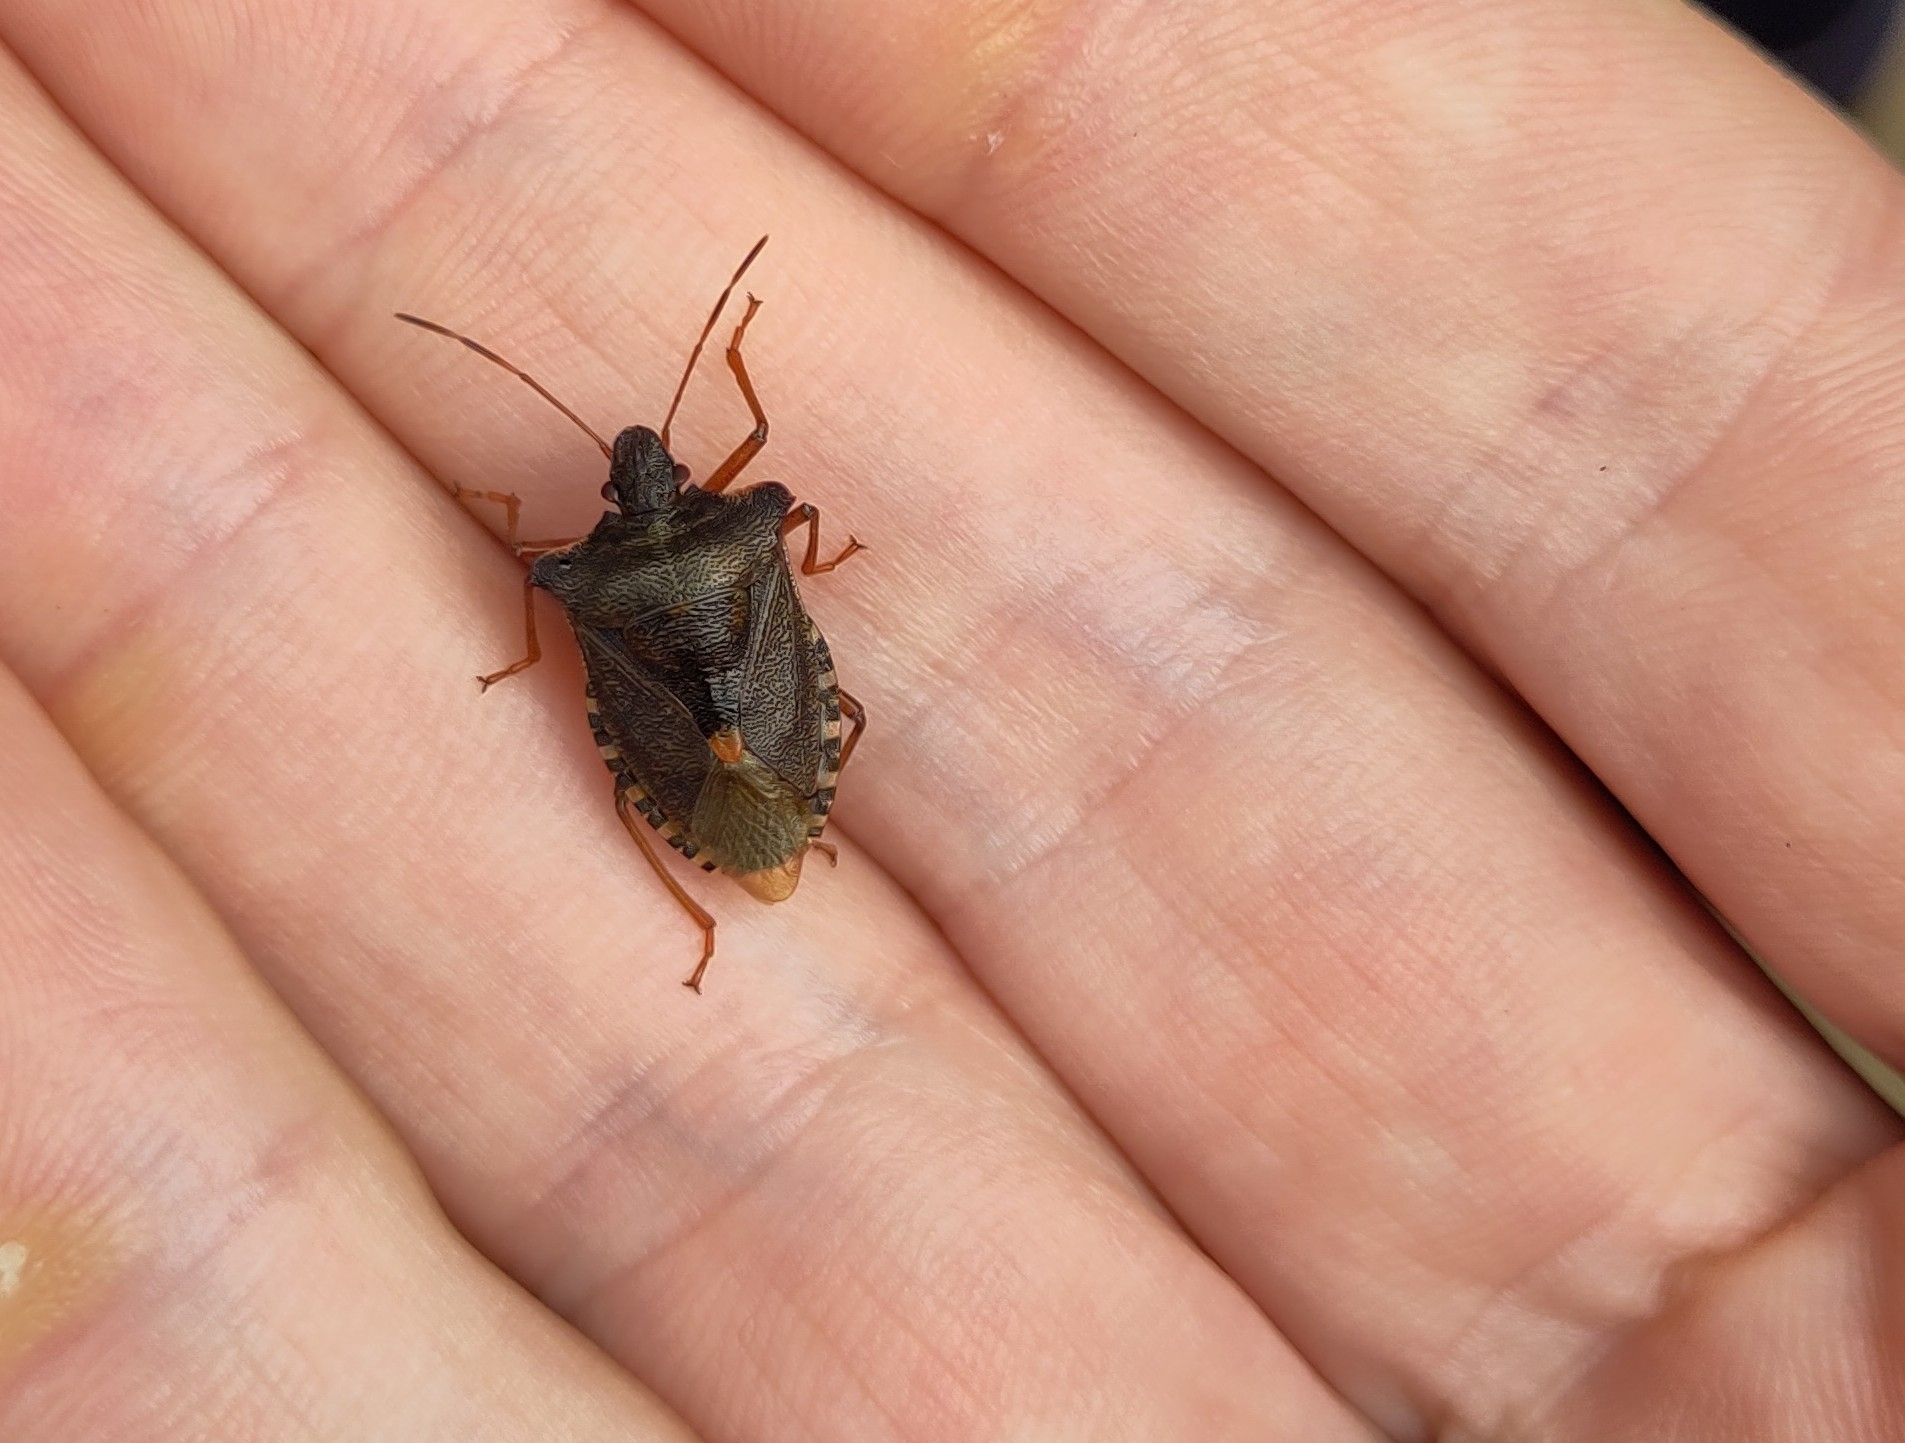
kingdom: Animalia
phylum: Arthropoda
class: Insecta
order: Hemiptera
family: Pentatomidae
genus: Pentatoma
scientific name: Pentatoma rufipes
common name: Forest bug
